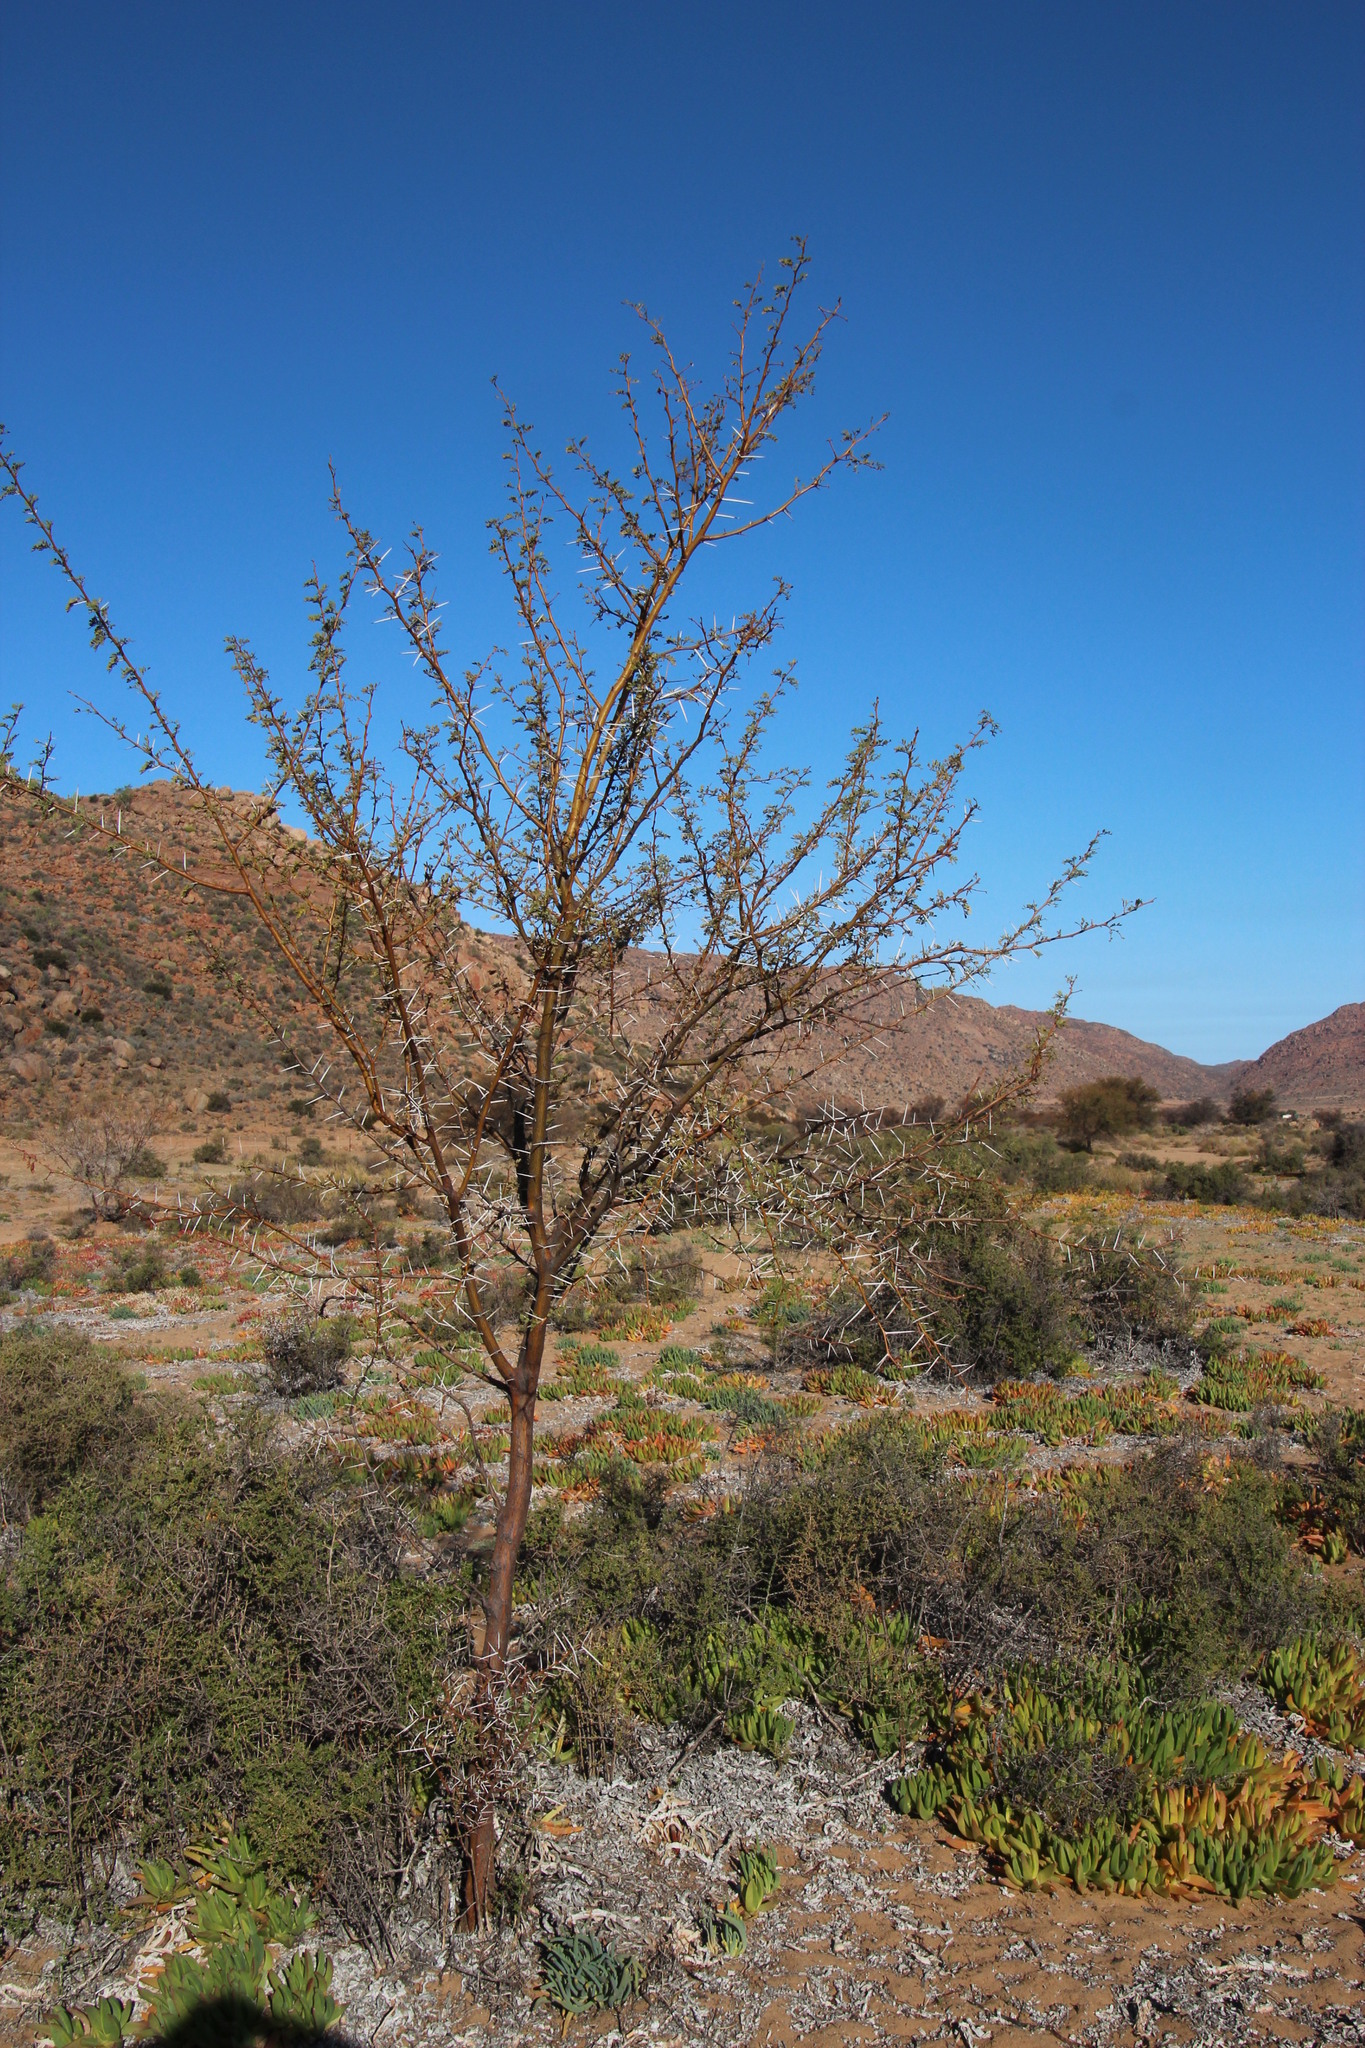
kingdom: Plantae
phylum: Tracheophyta
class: Magnoliopsida
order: Fabales
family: Fabaceae
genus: Vachellia
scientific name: Vachellia karroo
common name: Sweet thorn
